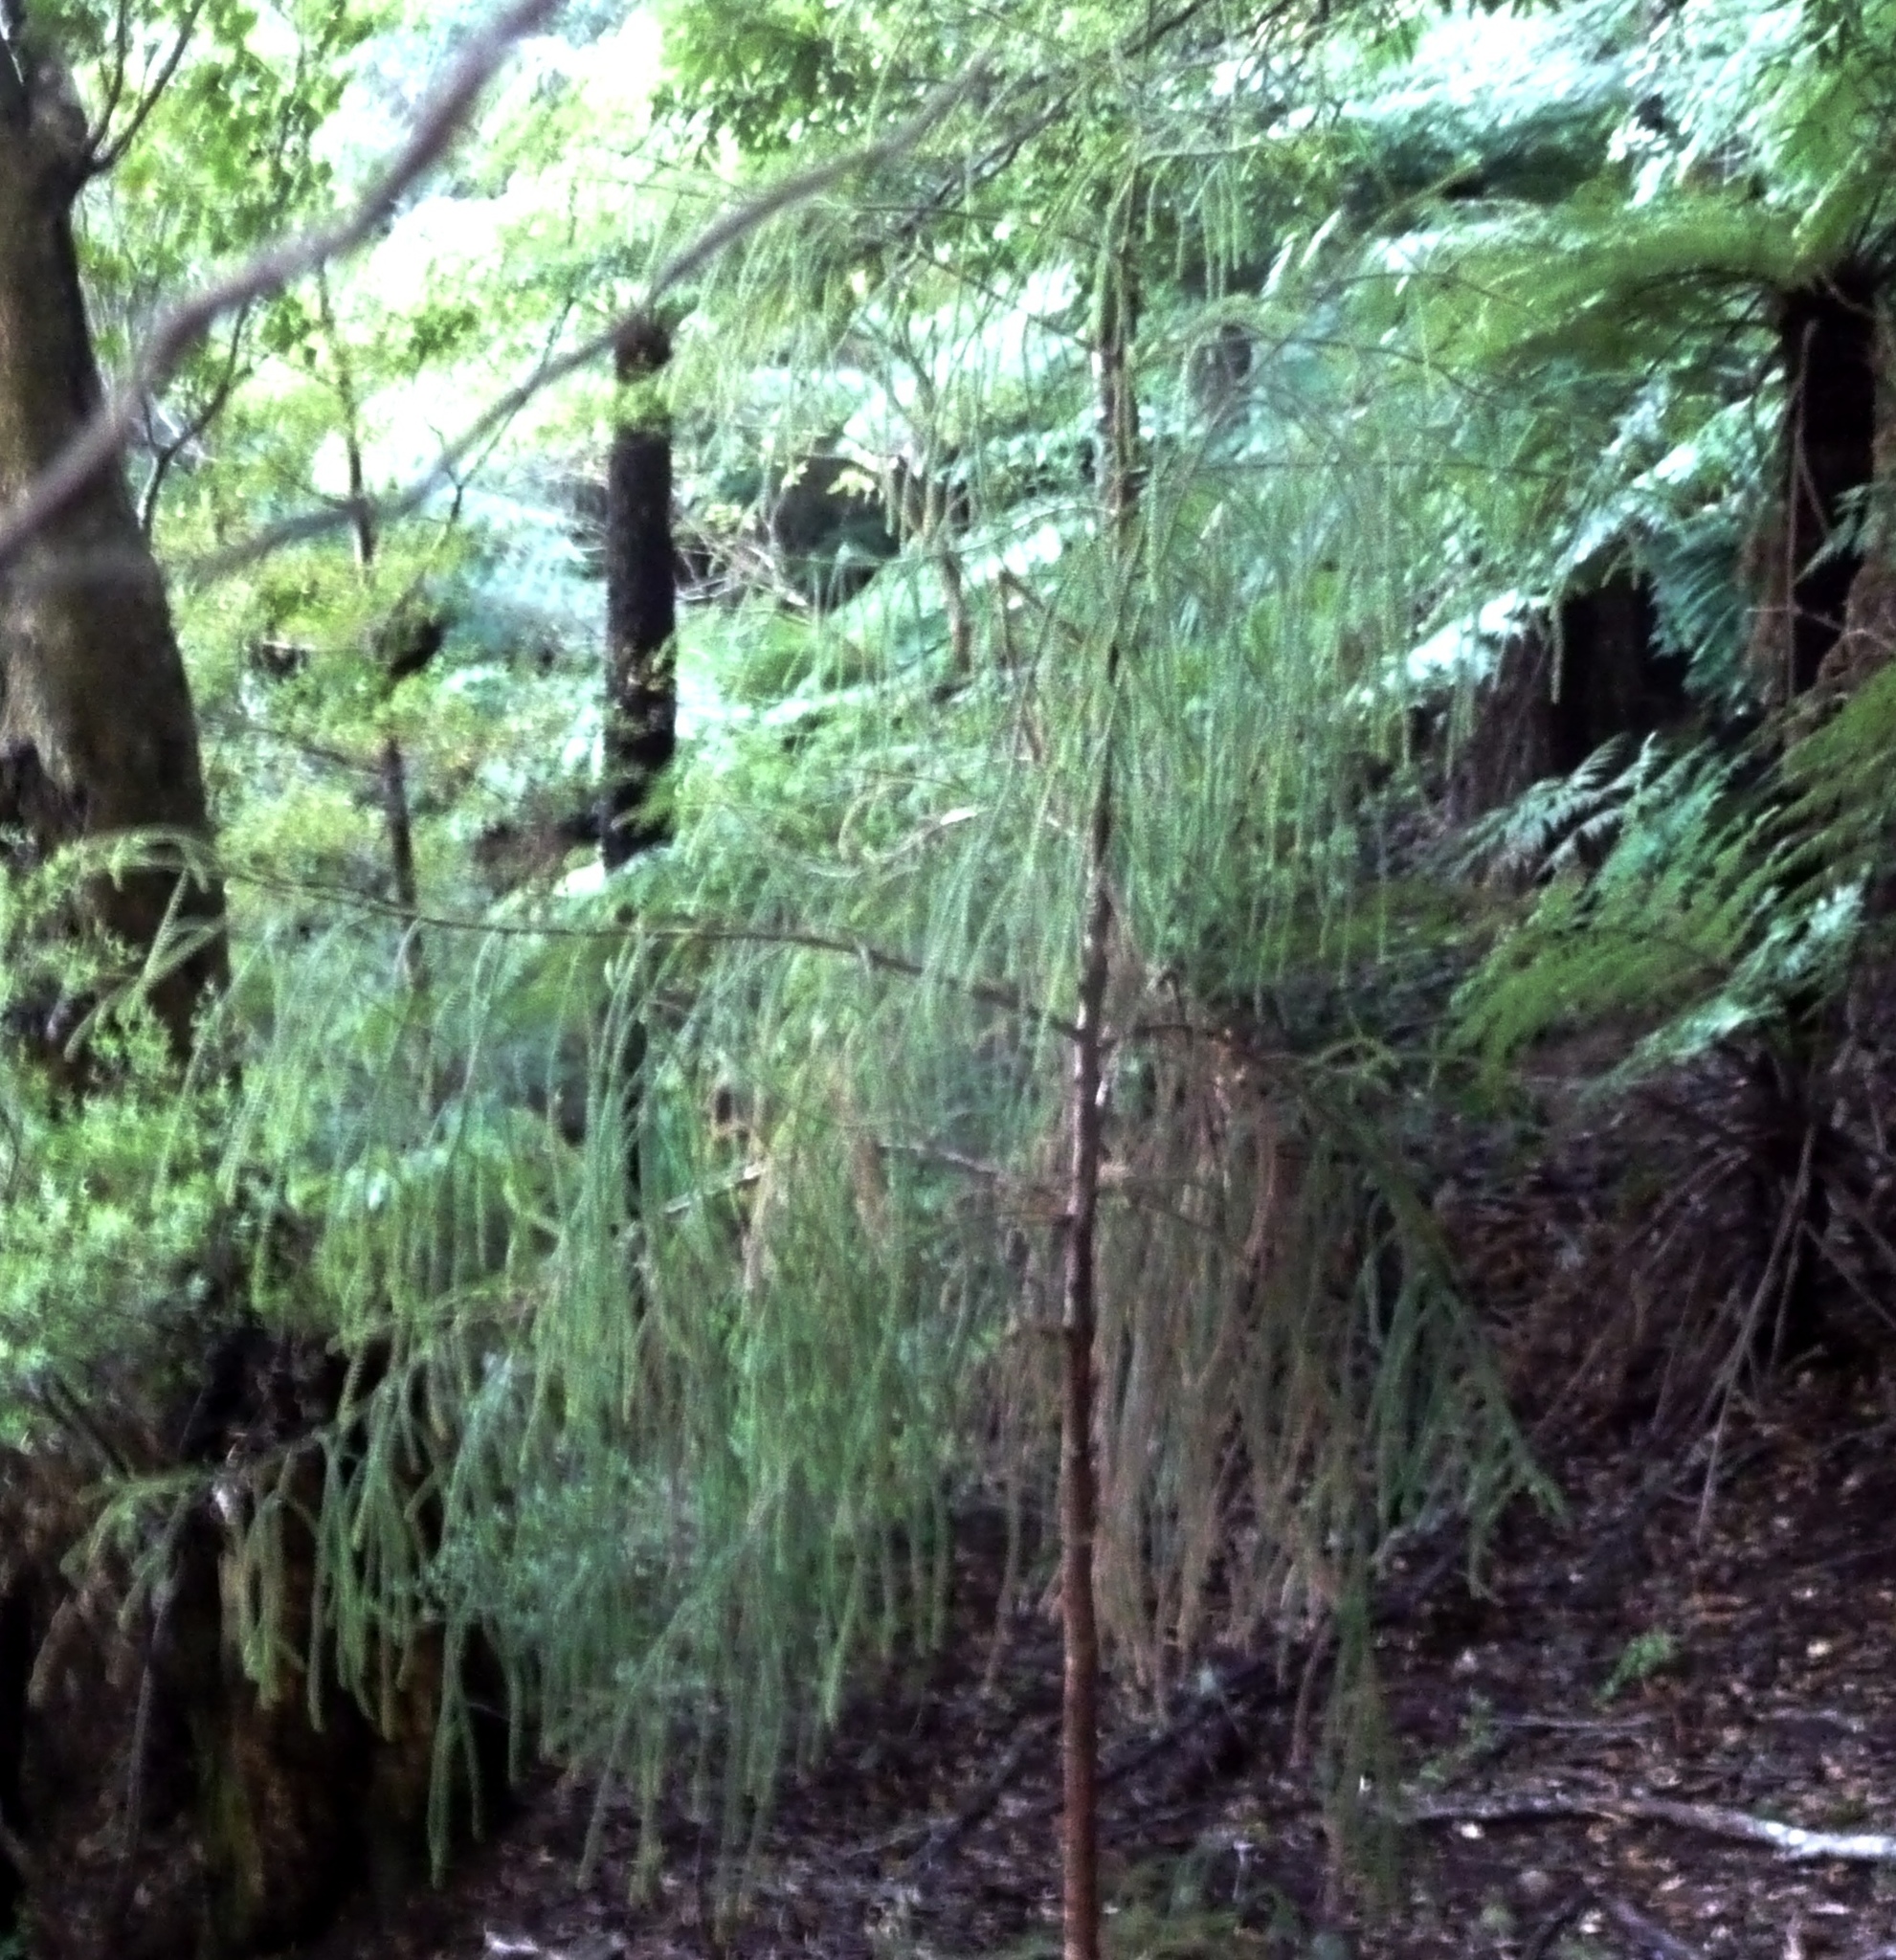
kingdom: Plantae
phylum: Tracheophyta
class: Pinopsida
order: Pinales
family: Podocarpaceae
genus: Dacrydium
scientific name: Dacrydium cupressinum
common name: Red pine
